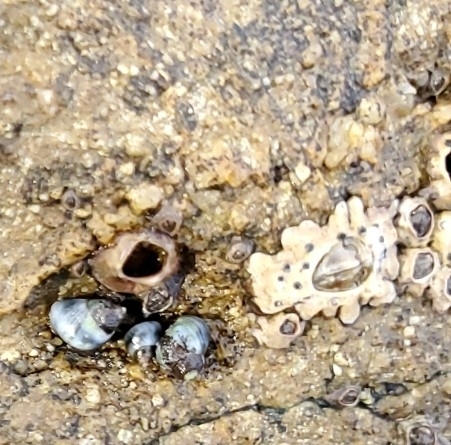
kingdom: Animalia
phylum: Arthropoda
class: Maxillopoda
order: Sessilia
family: Chthamalidae
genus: Chamaesipho
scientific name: Chamaesipho brunnea
